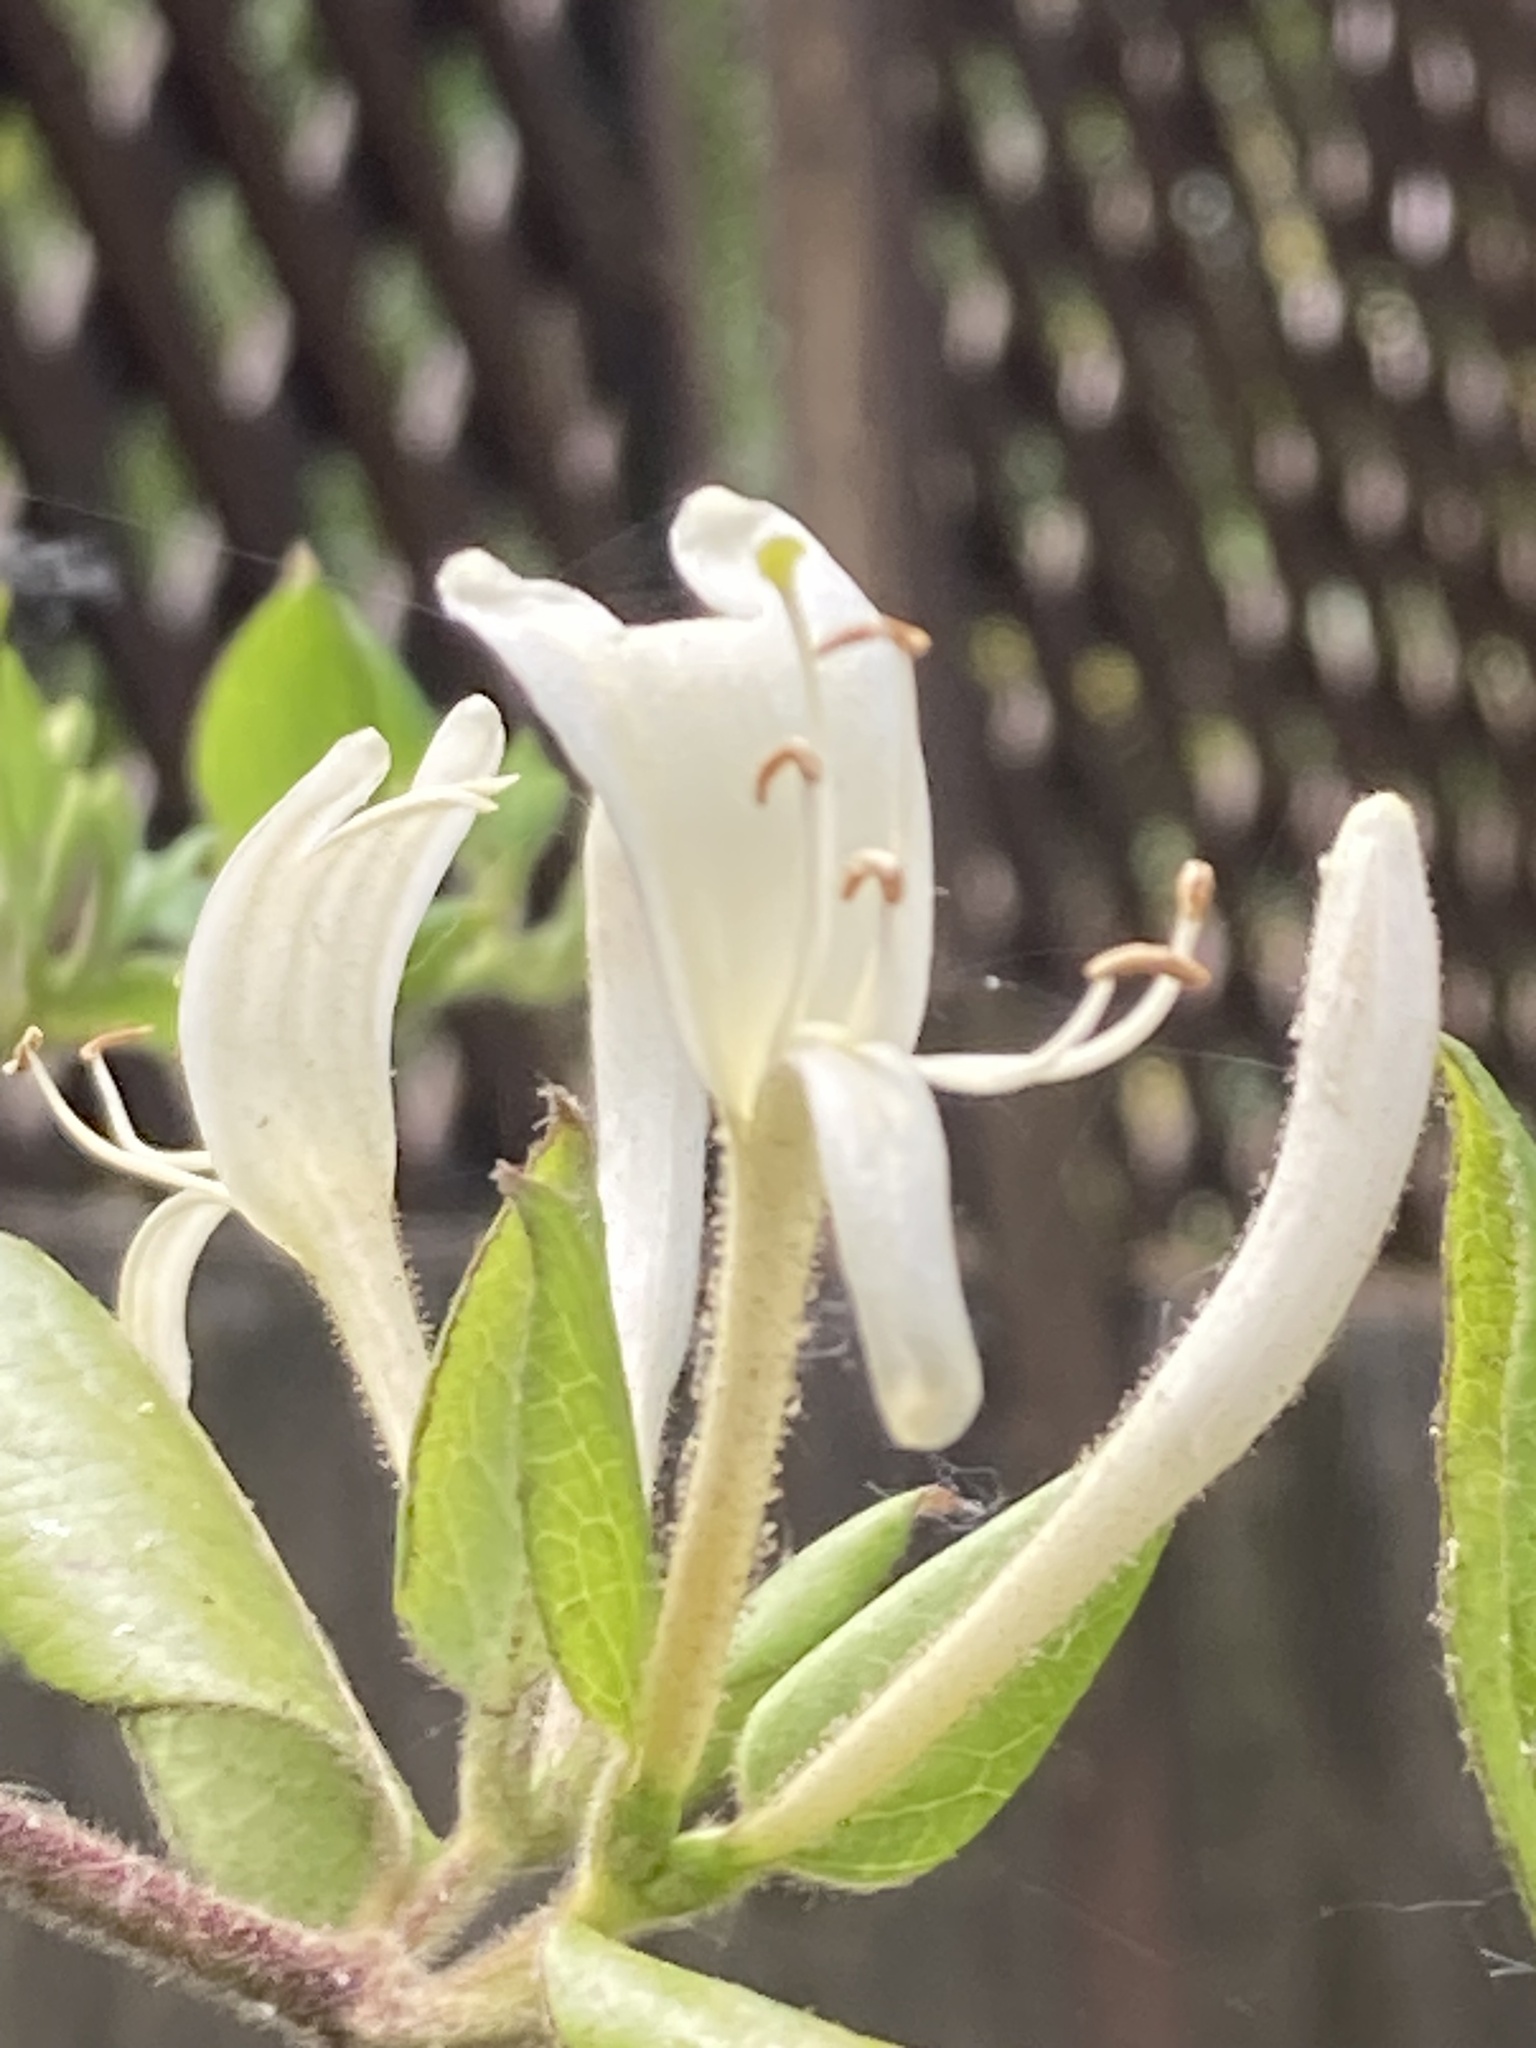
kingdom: Plantae
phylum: Tracheophyta
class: Magnoliopsida
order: Dipsacales
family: Caprifoliaceae
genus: Lonicera
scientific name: Lonicera japonica
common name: Japanese honeysuckle
